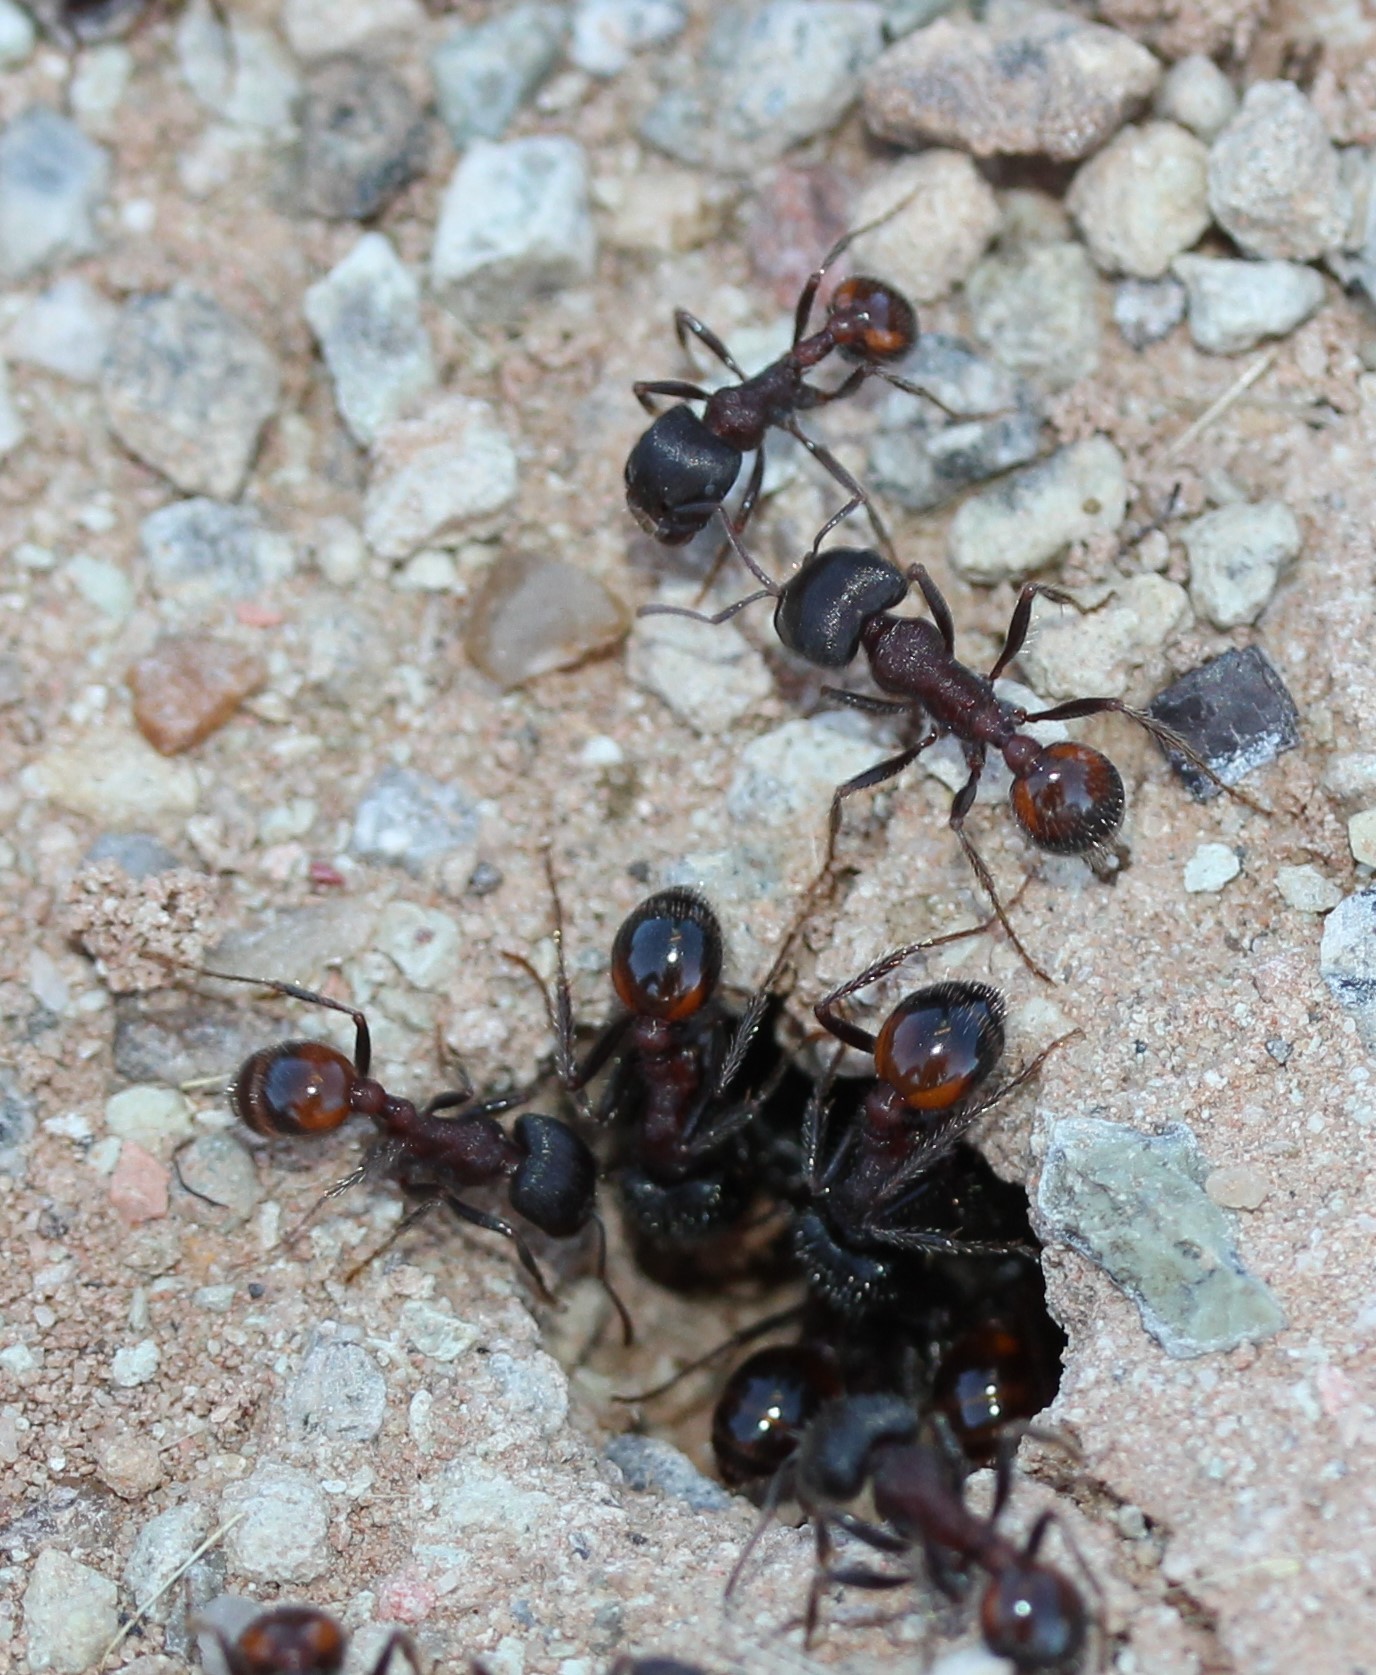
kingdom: Animalia
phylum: Arthropoda
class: Insecta
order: Hymenoptera
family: Formicidae
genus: Pogonomyrmex
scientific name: Pogonomyrmex rugosus
